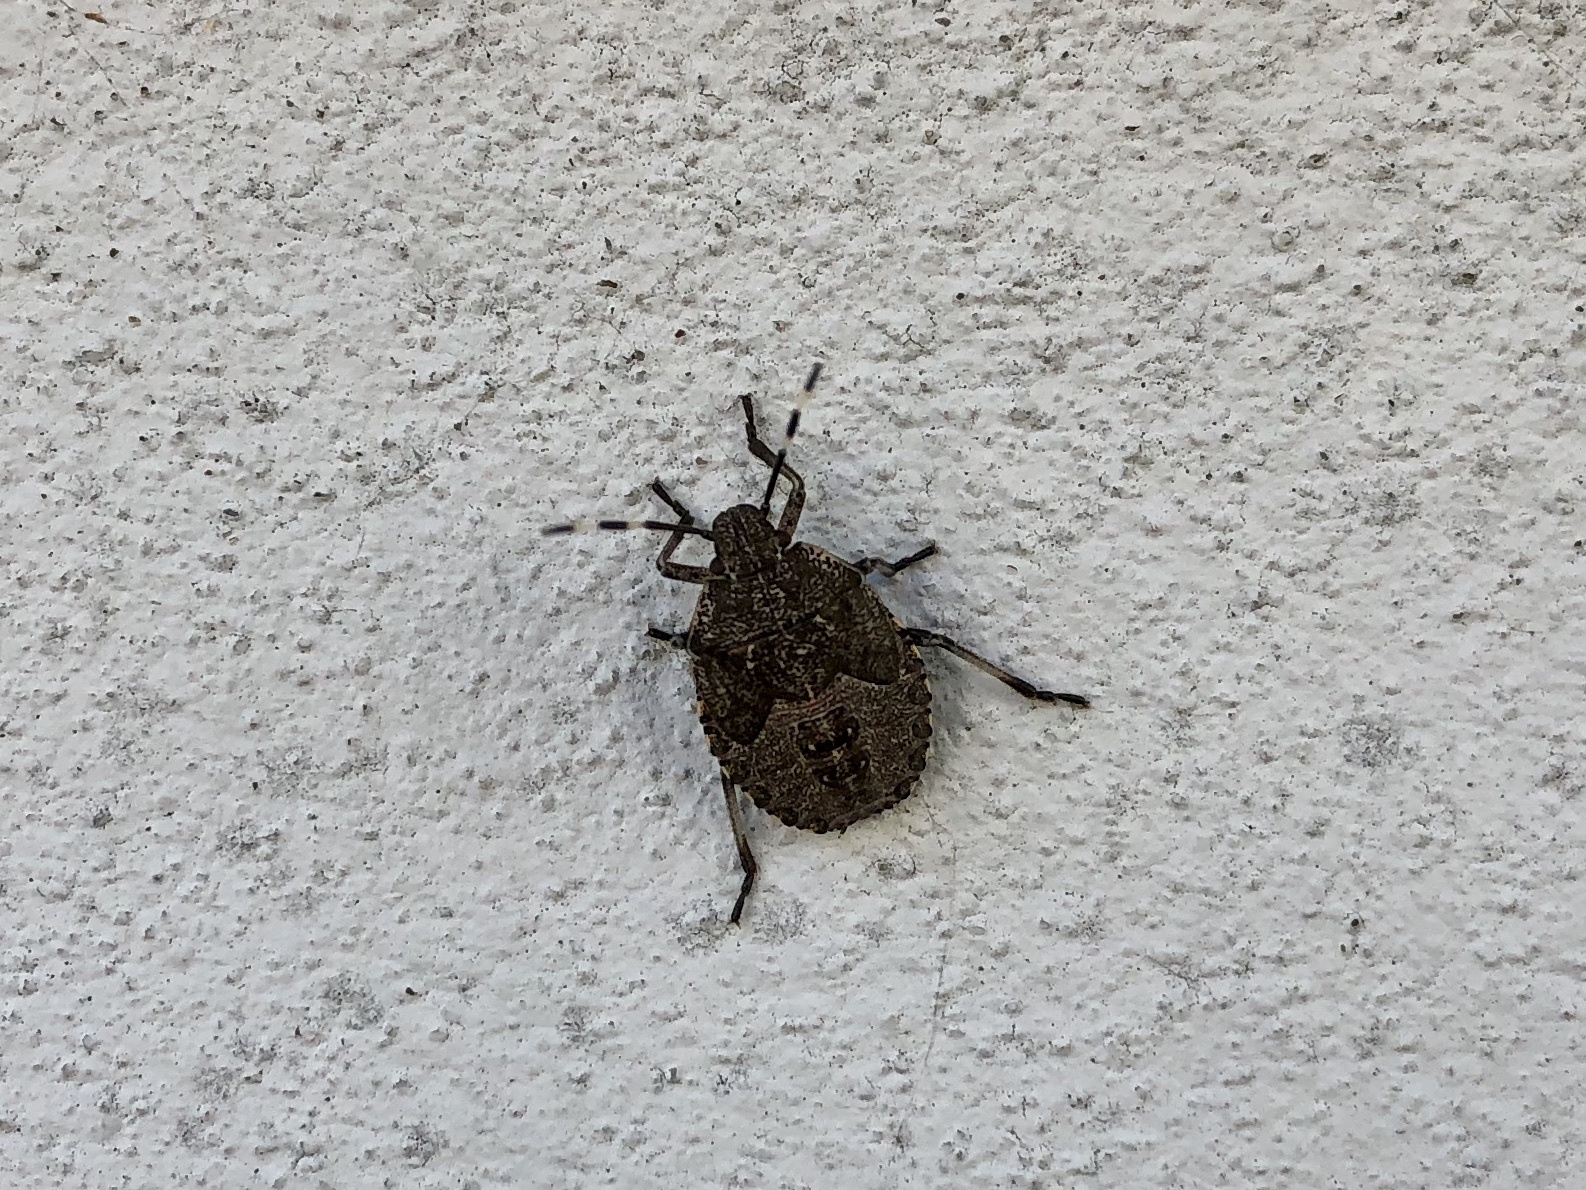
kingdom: Animalia
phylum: Arthropoda
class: Insecta
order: Hemiptera
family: Pentatomidae
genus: Rhaphigaster
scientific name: Rhaphigaster nebulosa
